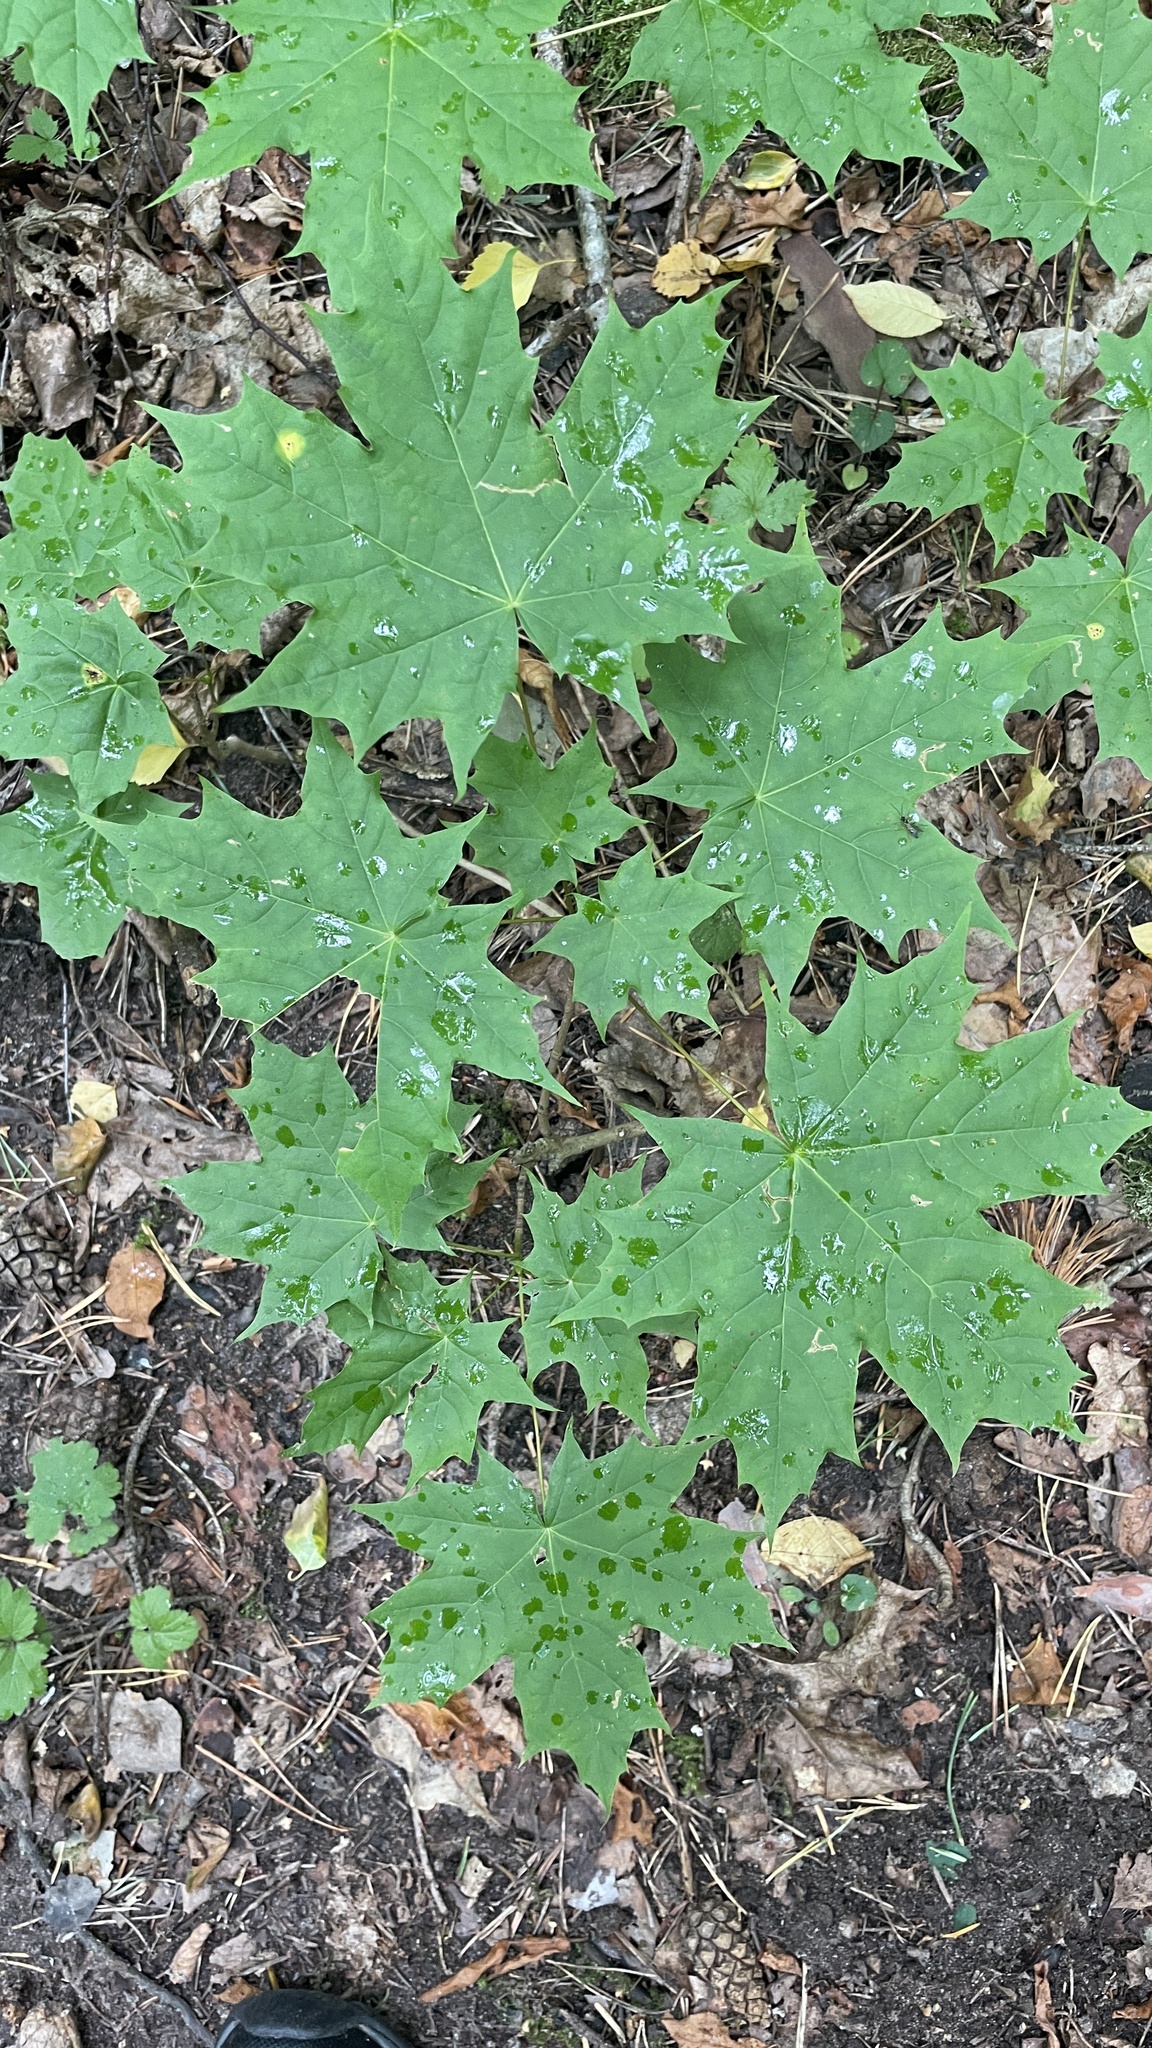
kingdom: Plantae
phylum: Tracheophyta
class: Magnoliopsida
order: Sapindales
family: Sapindaceae
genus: Acer
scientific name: Acer platanoides
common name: Norway maple
